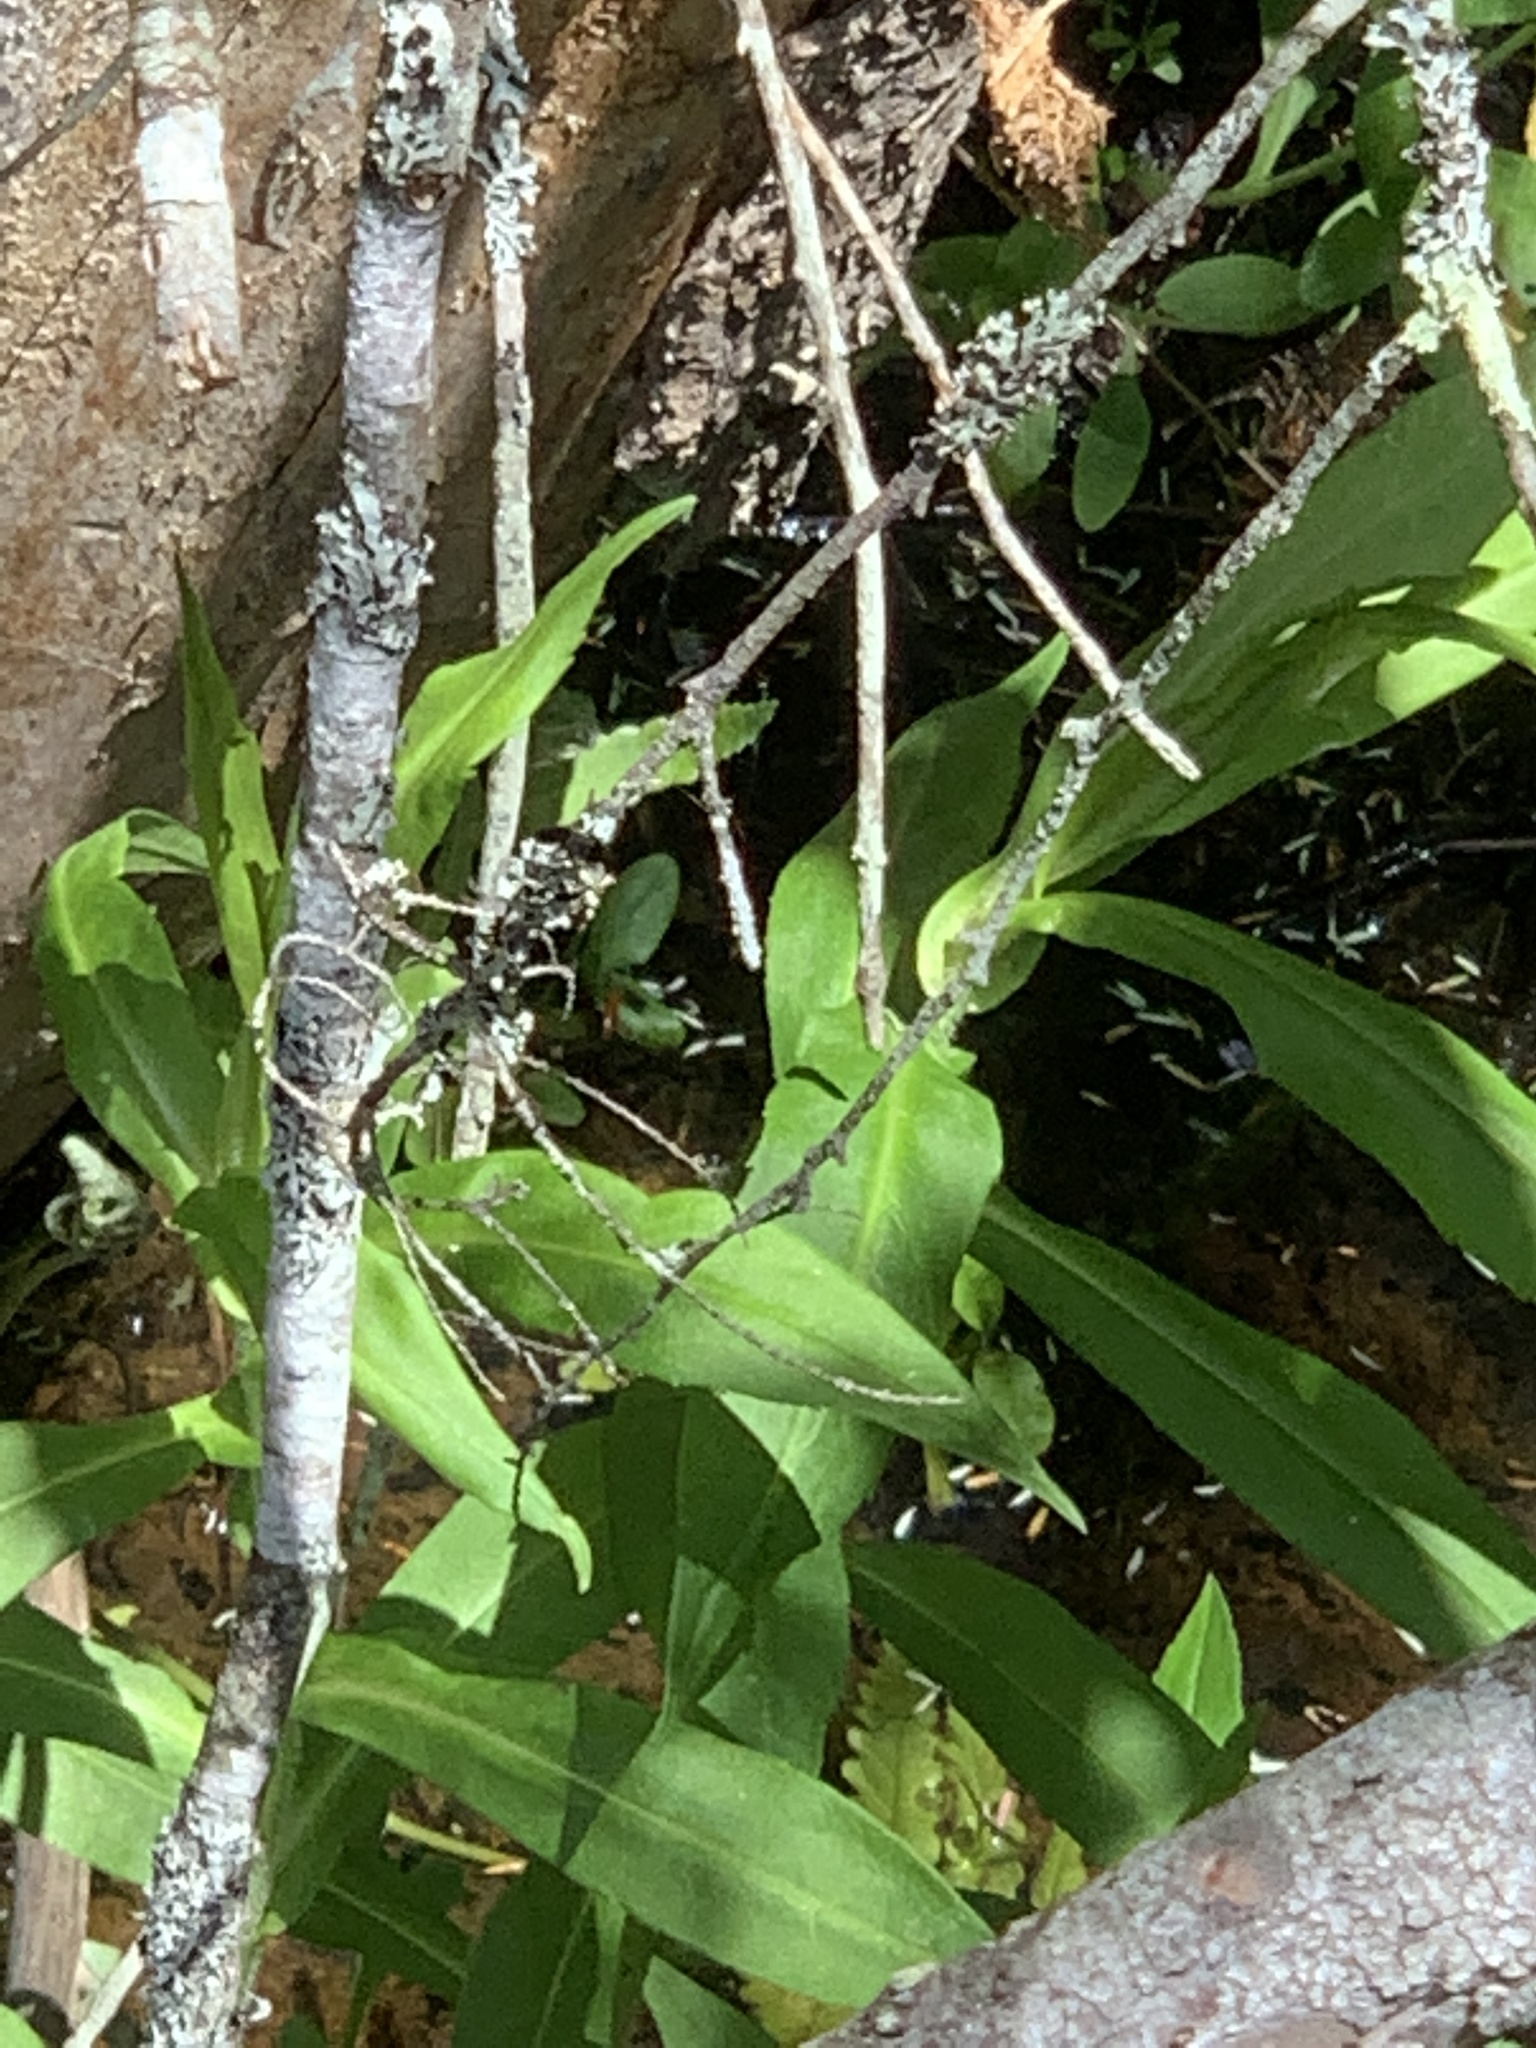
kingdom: Plantae
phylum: Tracheophyta
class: Magnoliopsida
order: Asterales
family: Asteraceae
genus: Symphyotrichum
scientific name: Symphyotrichum puniceum
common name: Bog aster
